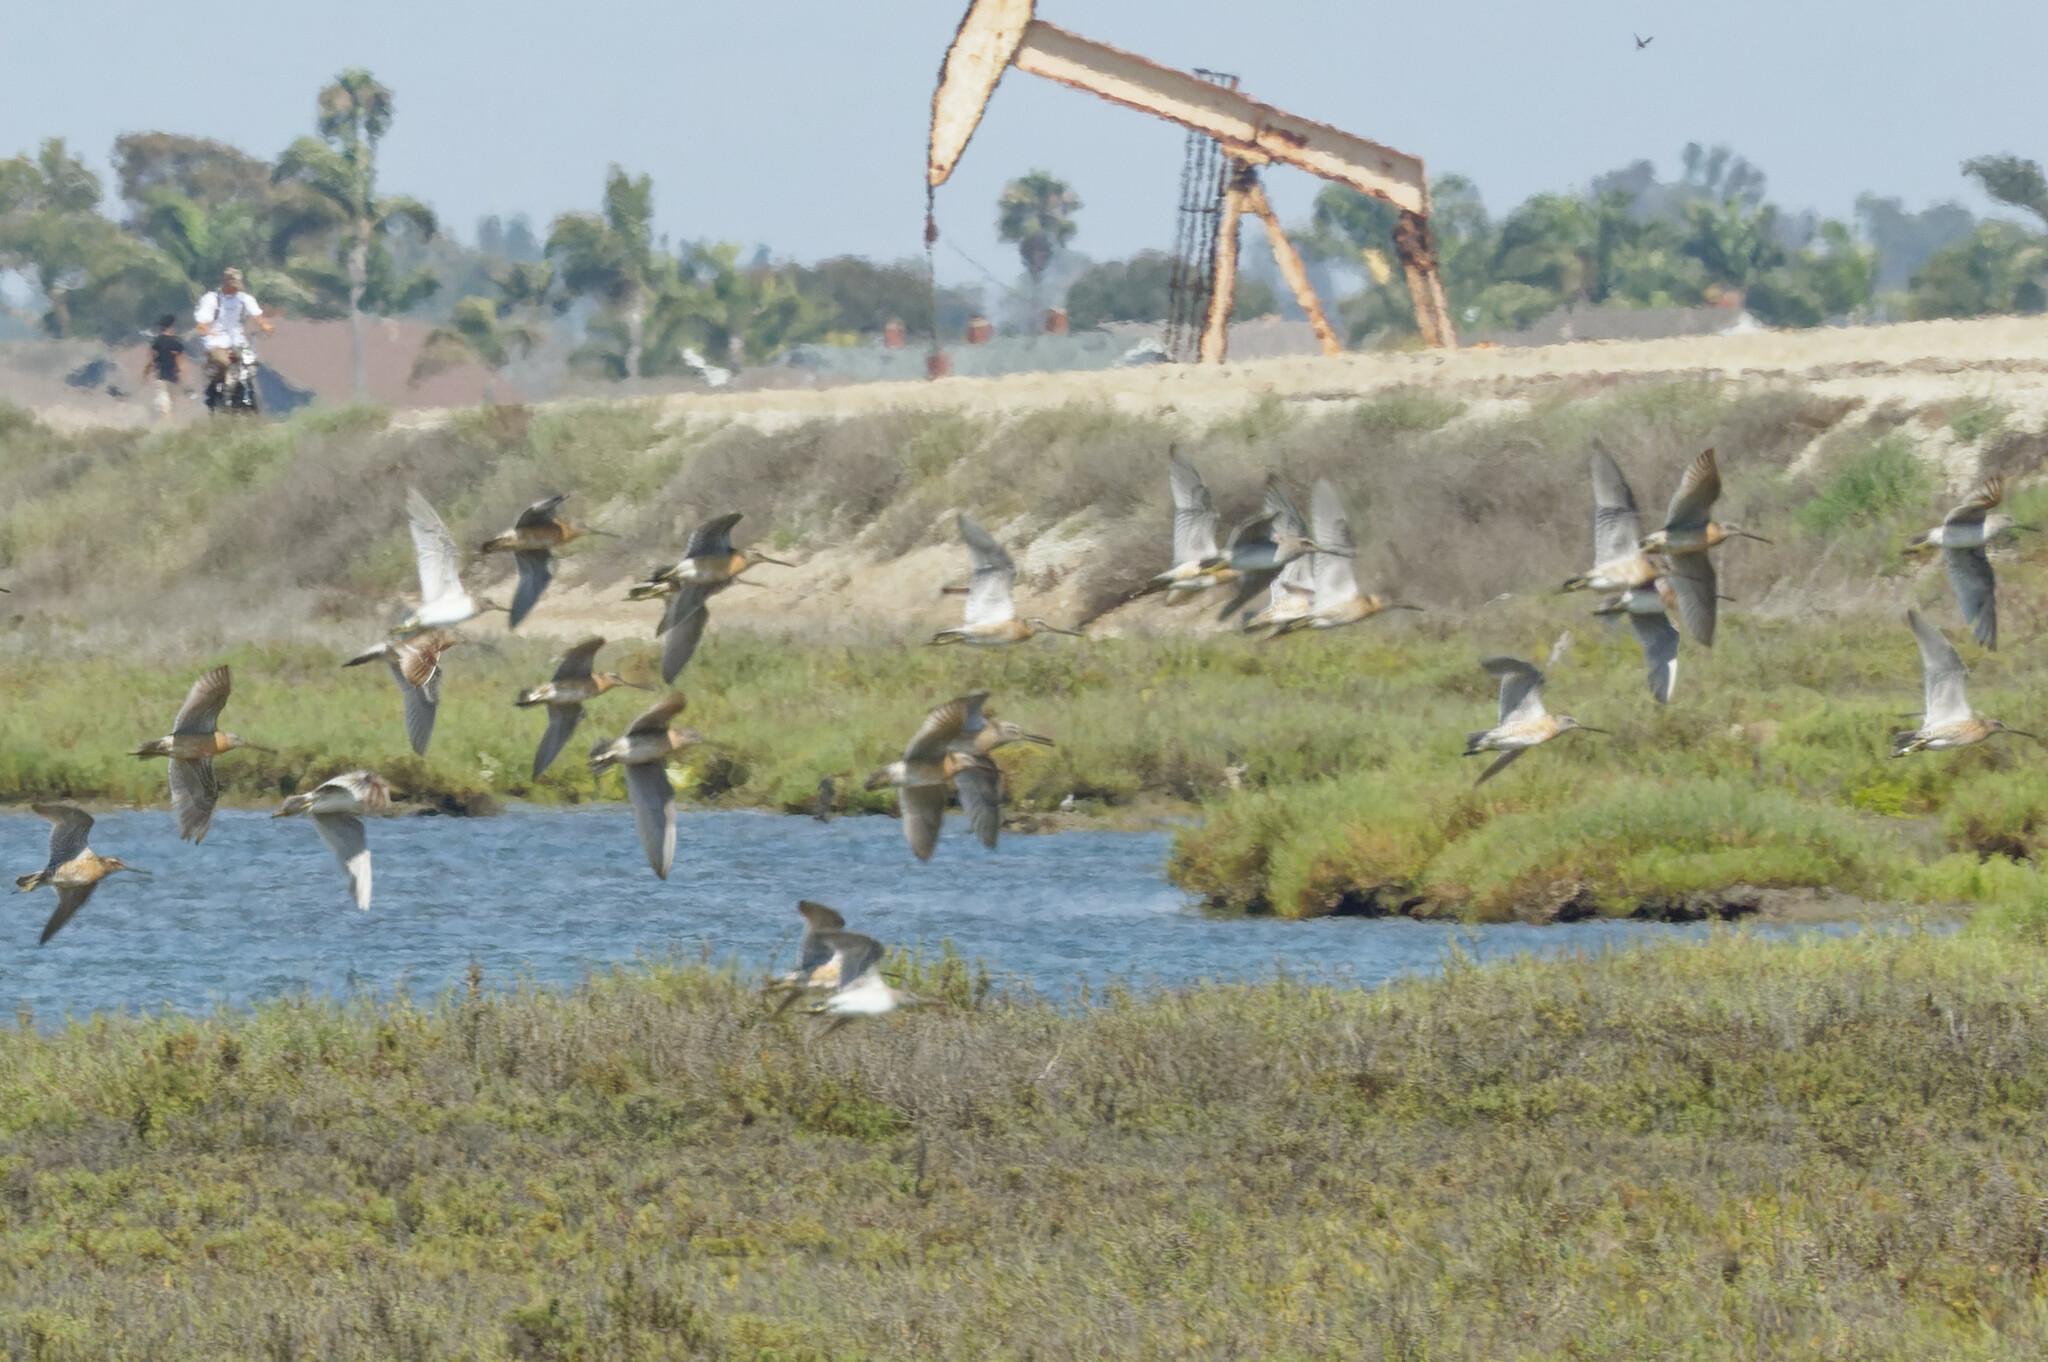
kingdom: Animalia
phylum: Chordata
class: Aves
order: Charadriiformes
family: Scolopacidae
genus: Limnodromus
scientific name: Limnodromus griseus
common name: Short-billed dowitcher
